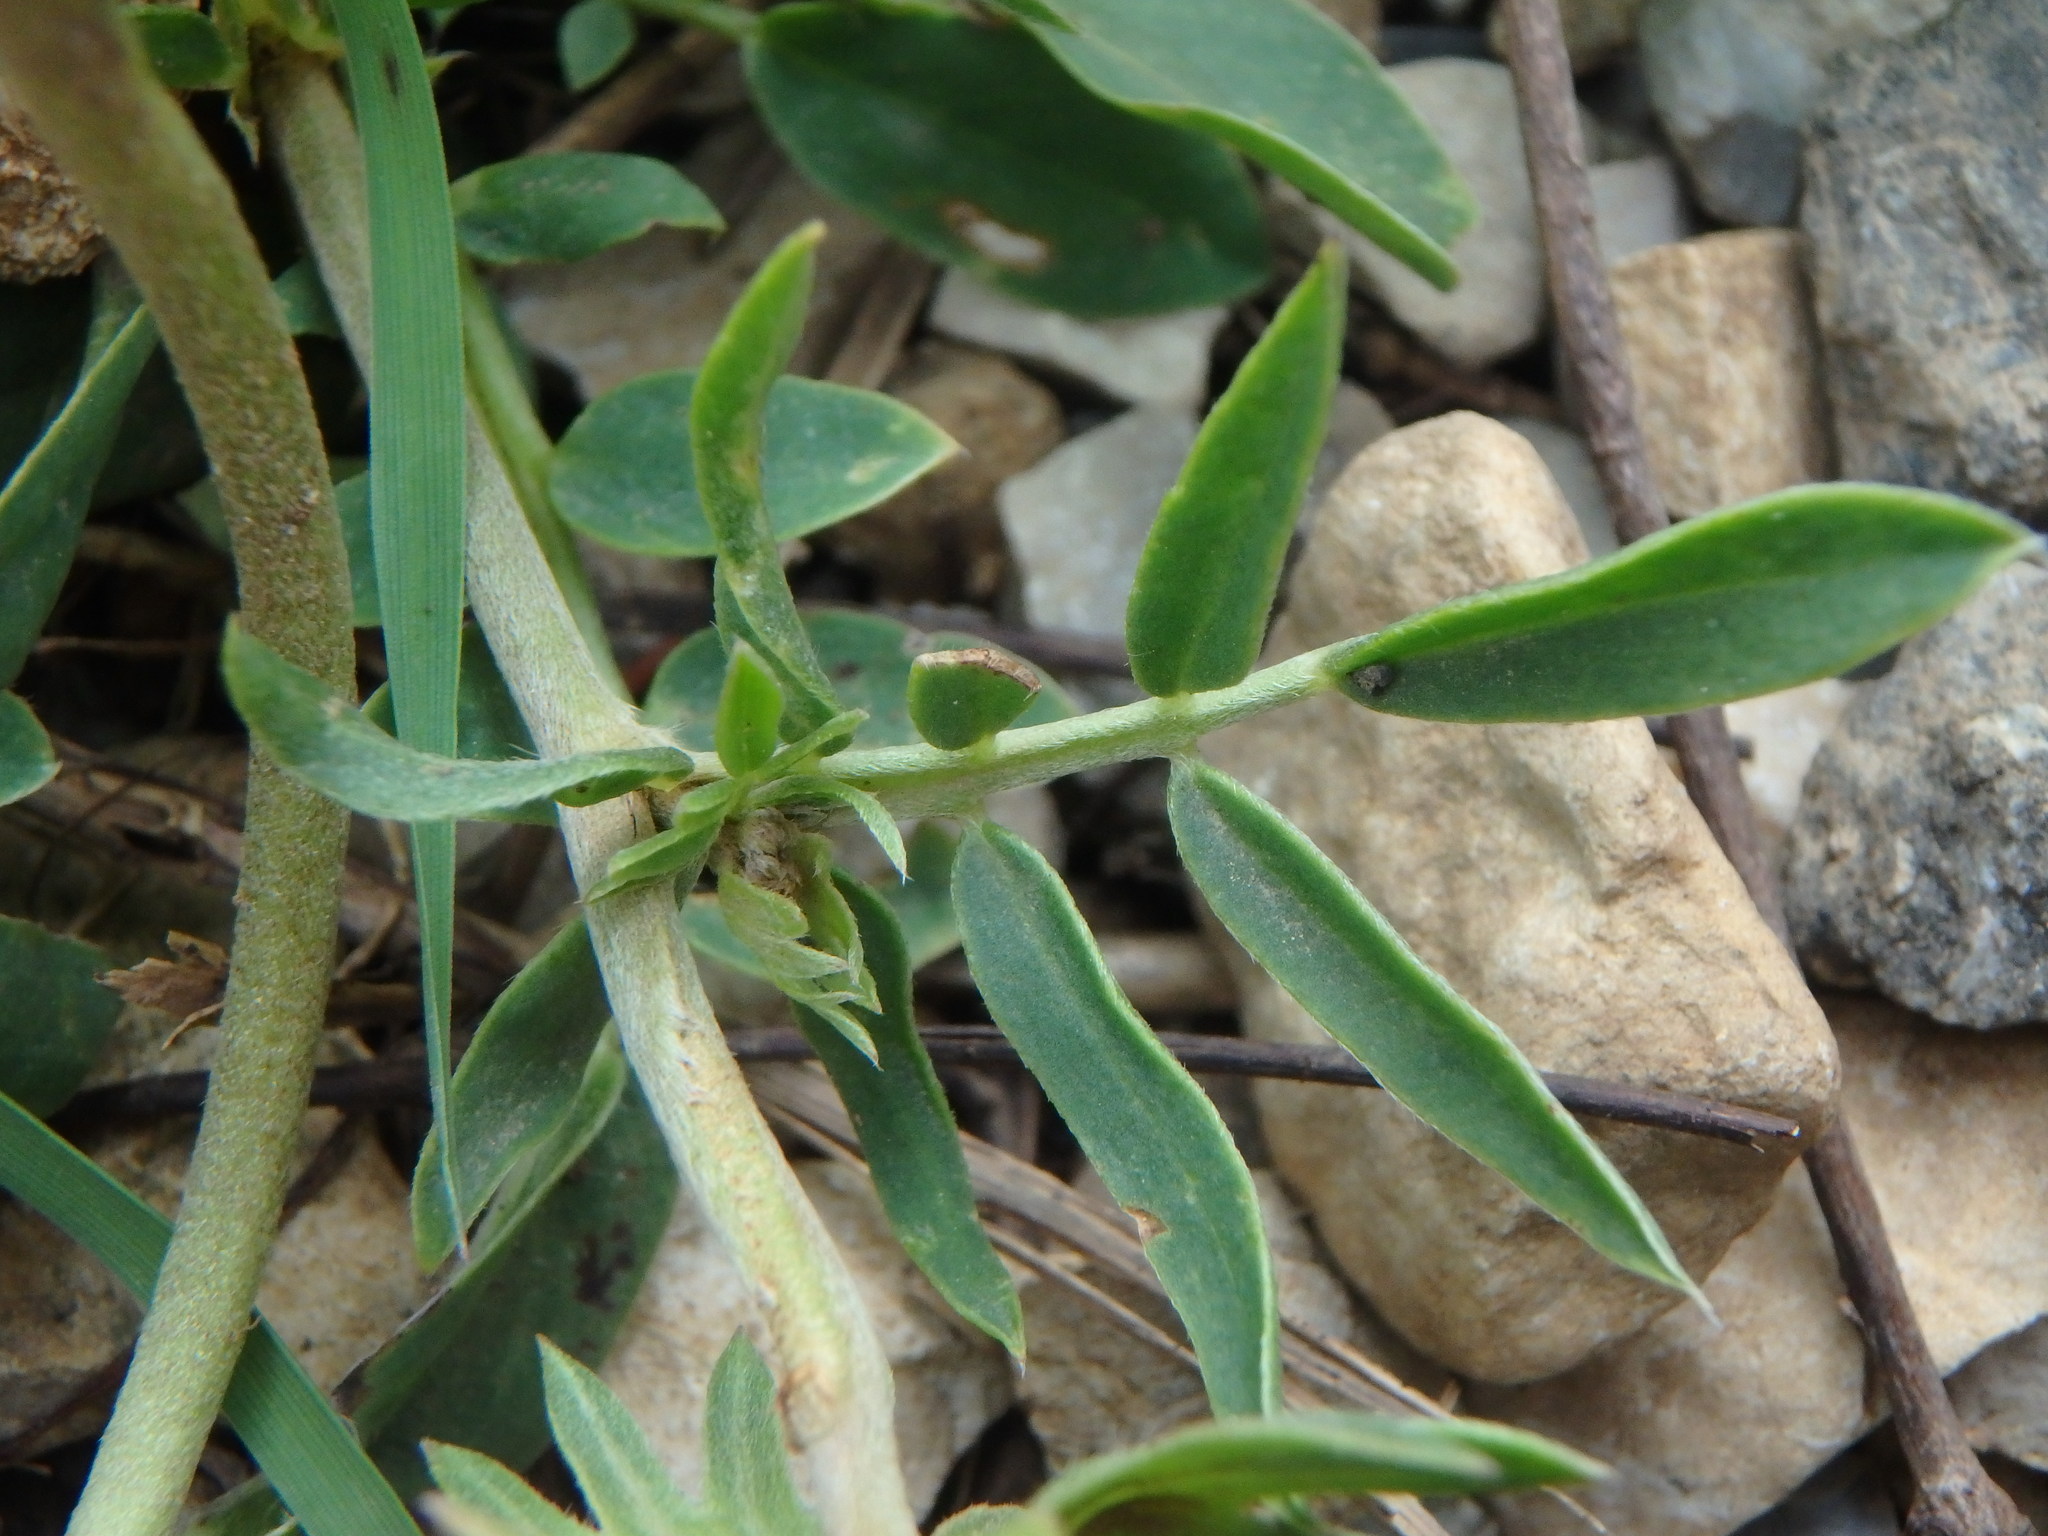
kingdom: Plantae
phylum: Tracheophyta
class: Magnoliopsida
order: Fabales
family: Fabaceae
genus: Anthyllis
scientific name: Anthyllis vulneraria
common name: Kidney vetch
